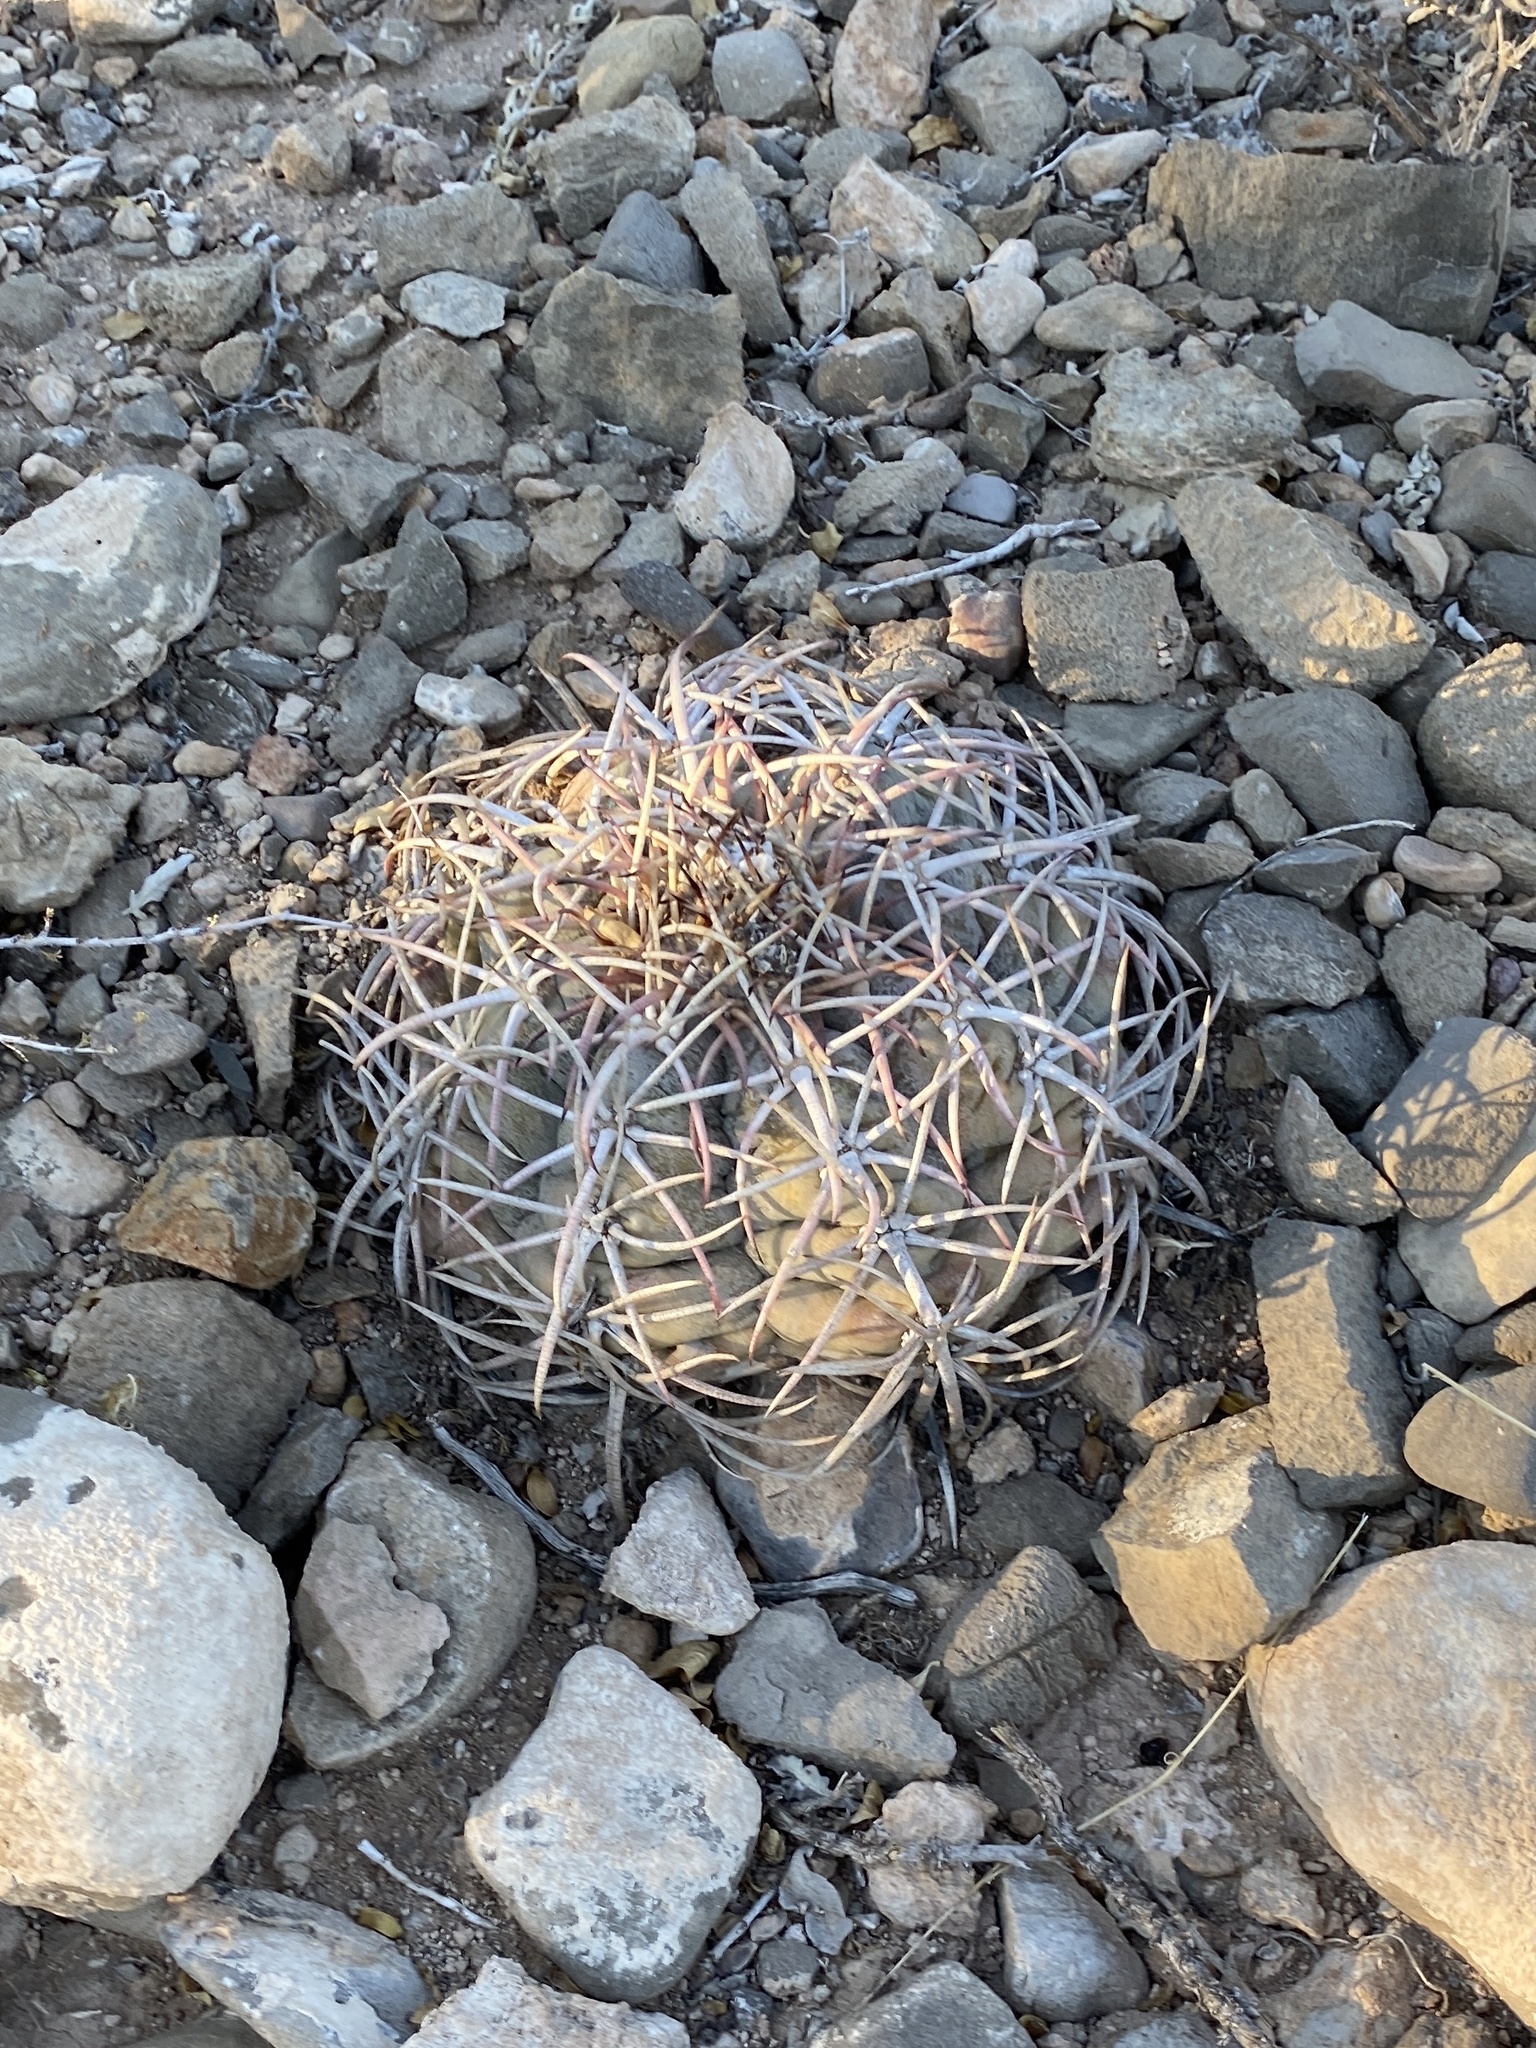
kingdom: Plantae
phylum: Tracheophyta
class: Magnoliopsida
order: Caryophyllales
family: Cactaceae
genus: Echinocactus
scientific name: Echinocactus horizonthalonius
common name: Devilshead
